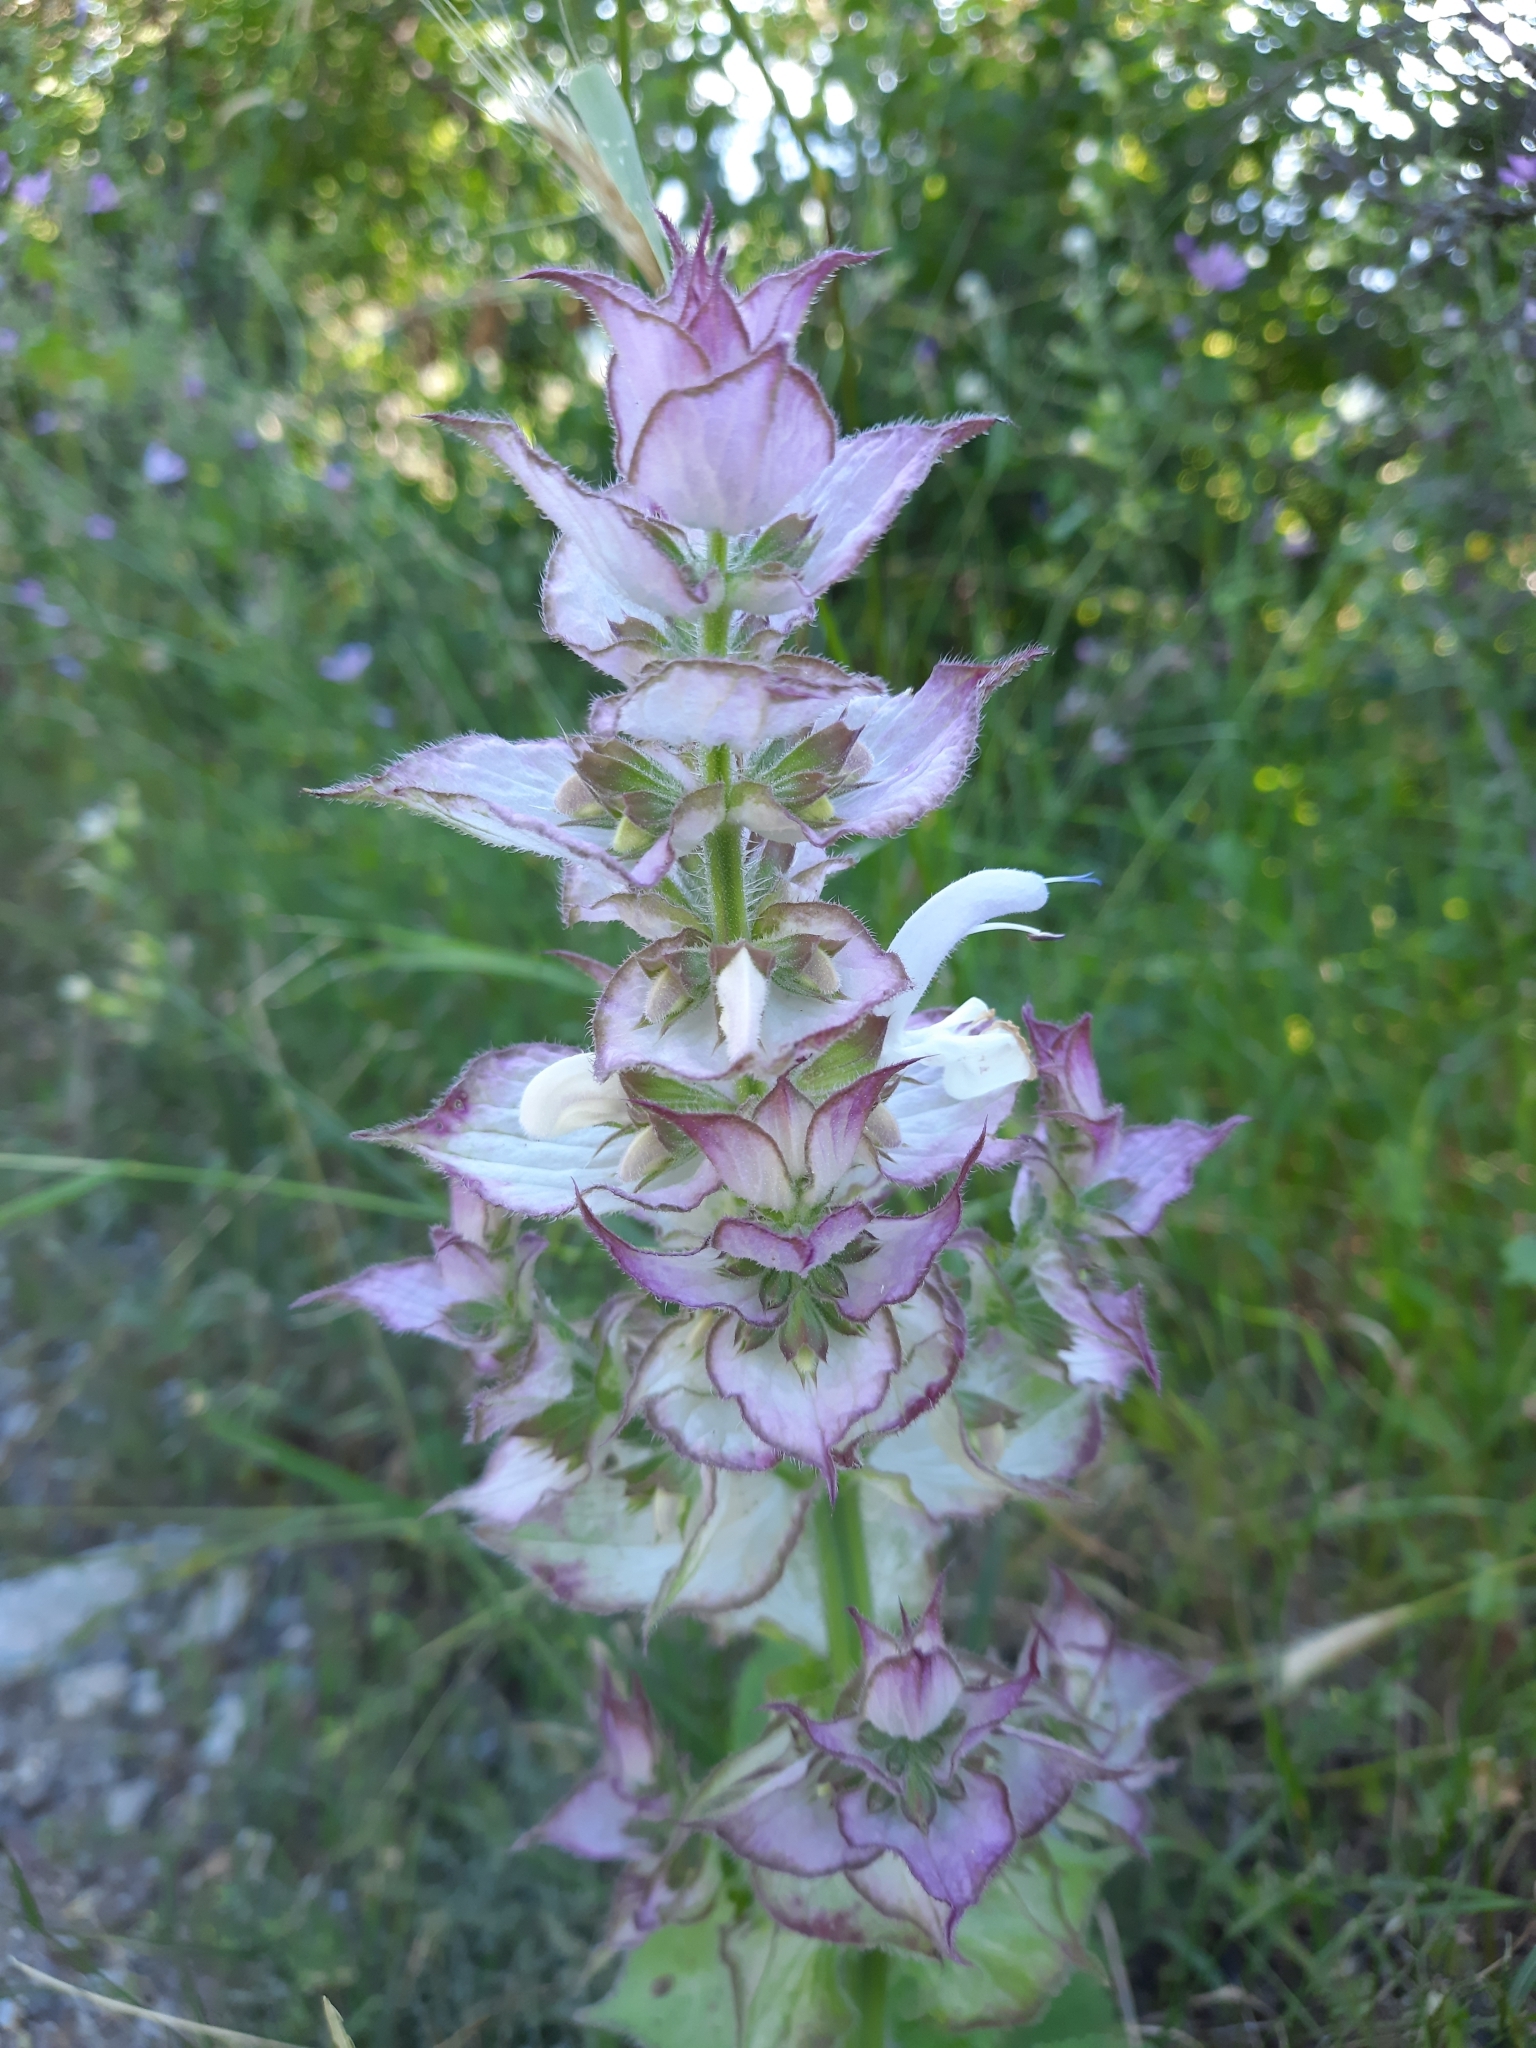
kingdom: Plantae
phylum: Tracheophyta
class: Magnoliopsida
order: Lamiales
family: Lamiaceae
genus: Salvia
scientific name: Salvia sclarea
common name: Clary
